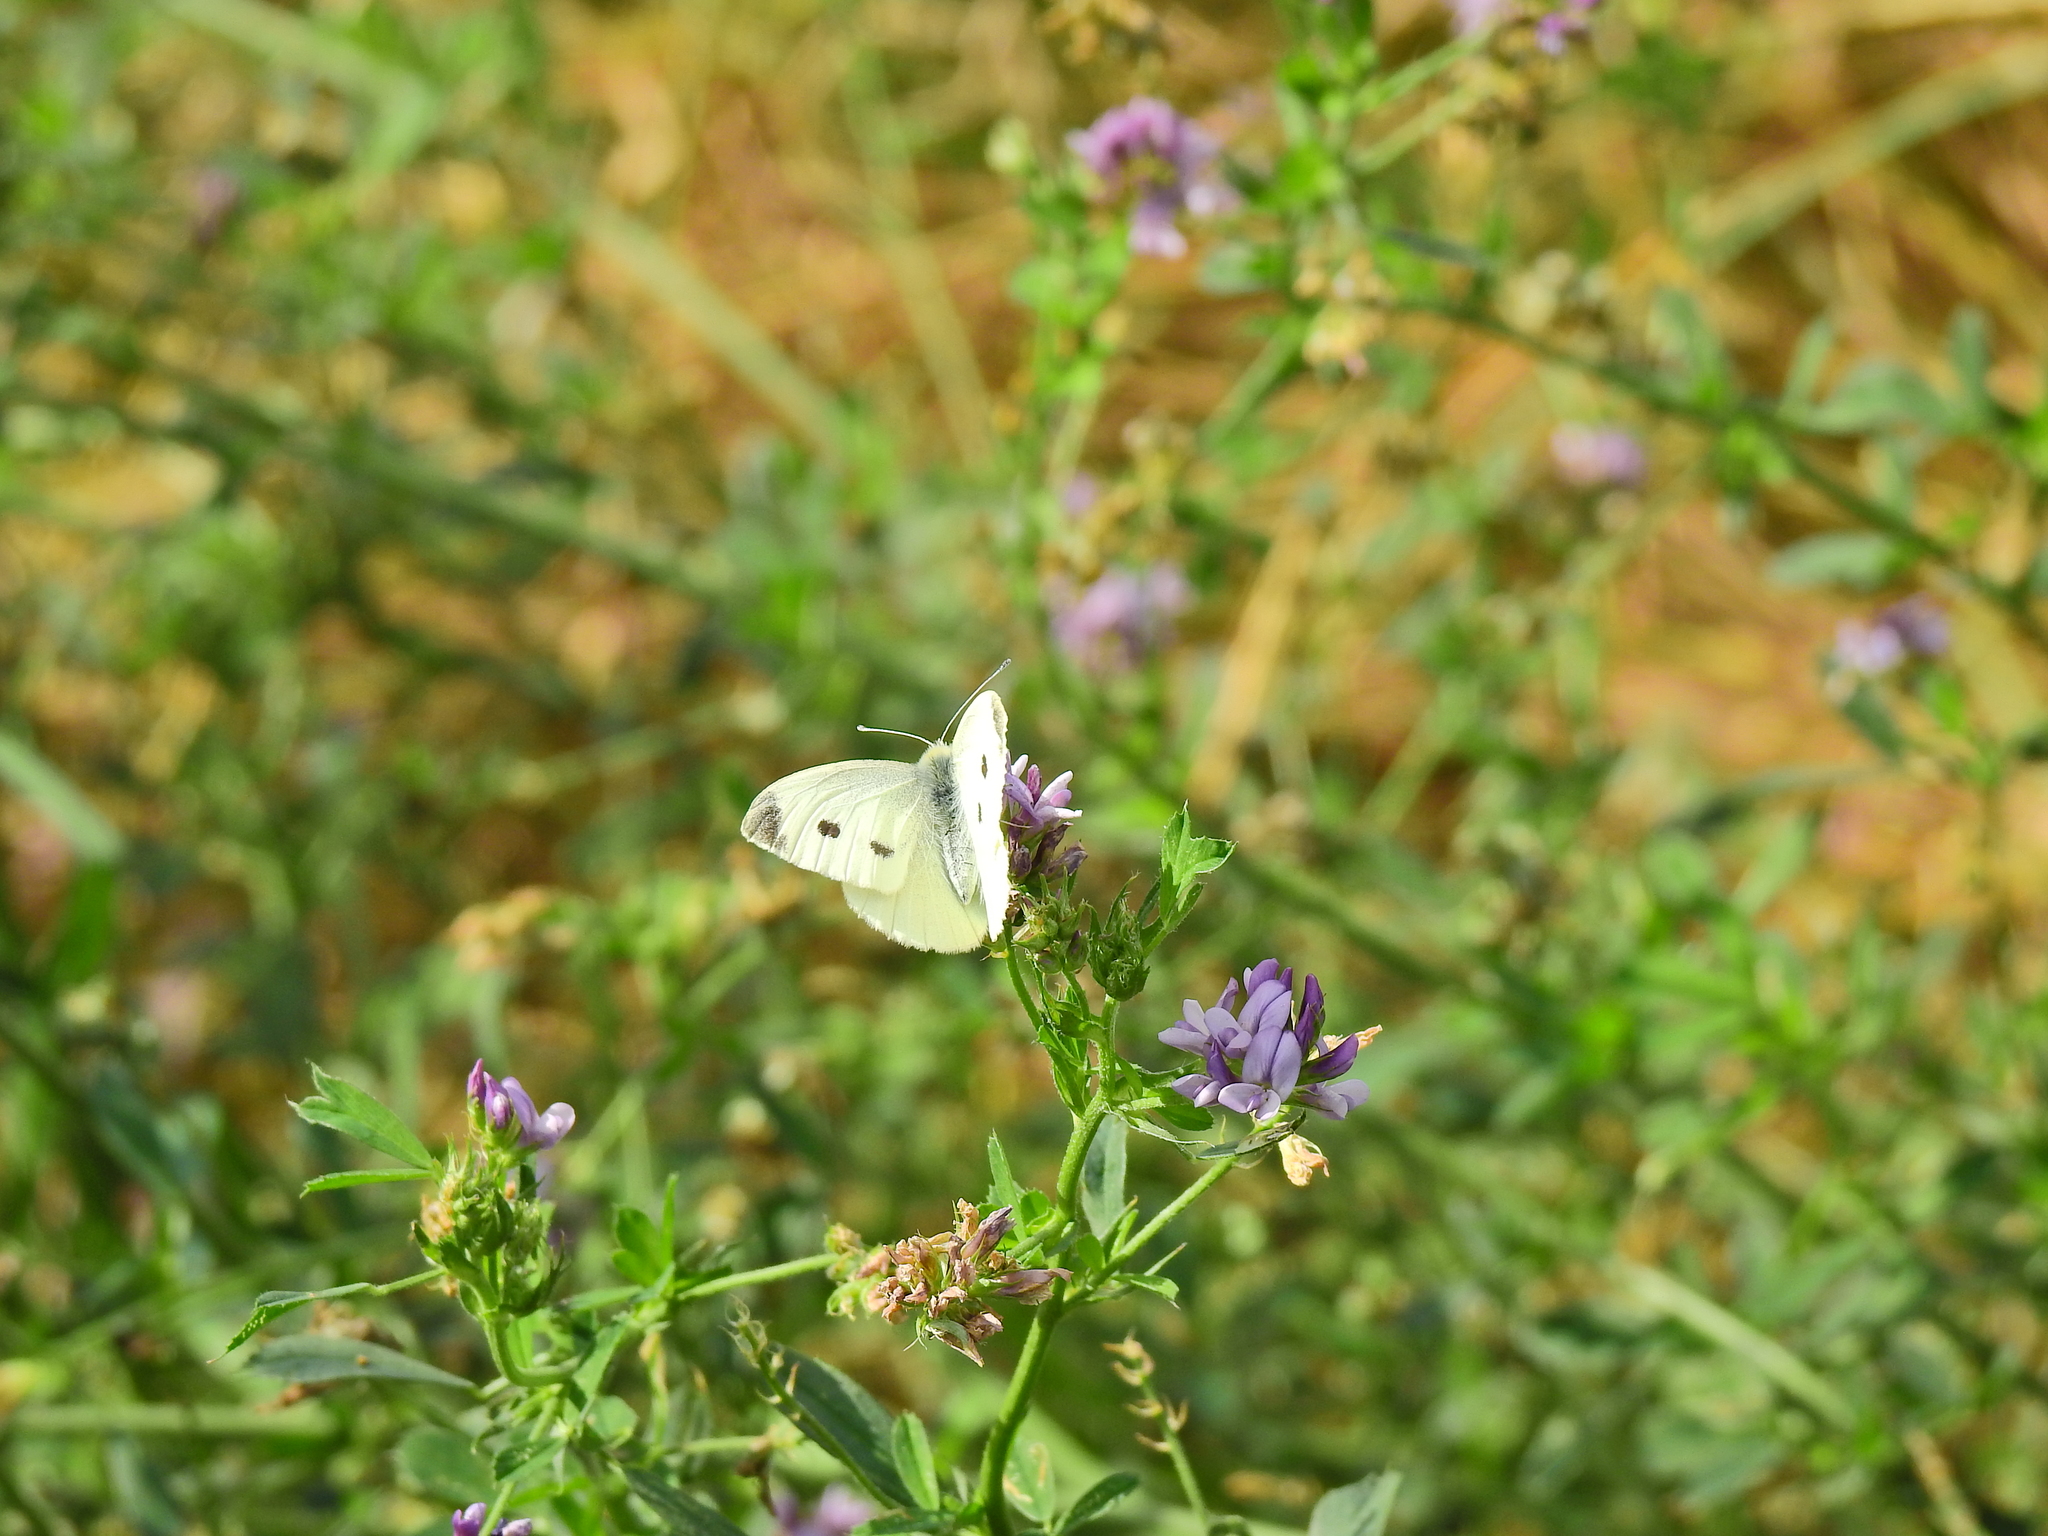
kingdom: Animalia
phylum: Arthropoda
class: Insecta
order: Lepidoptera
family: Pieridae
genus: Pieris
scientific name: Pieris rapae
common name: Small white
